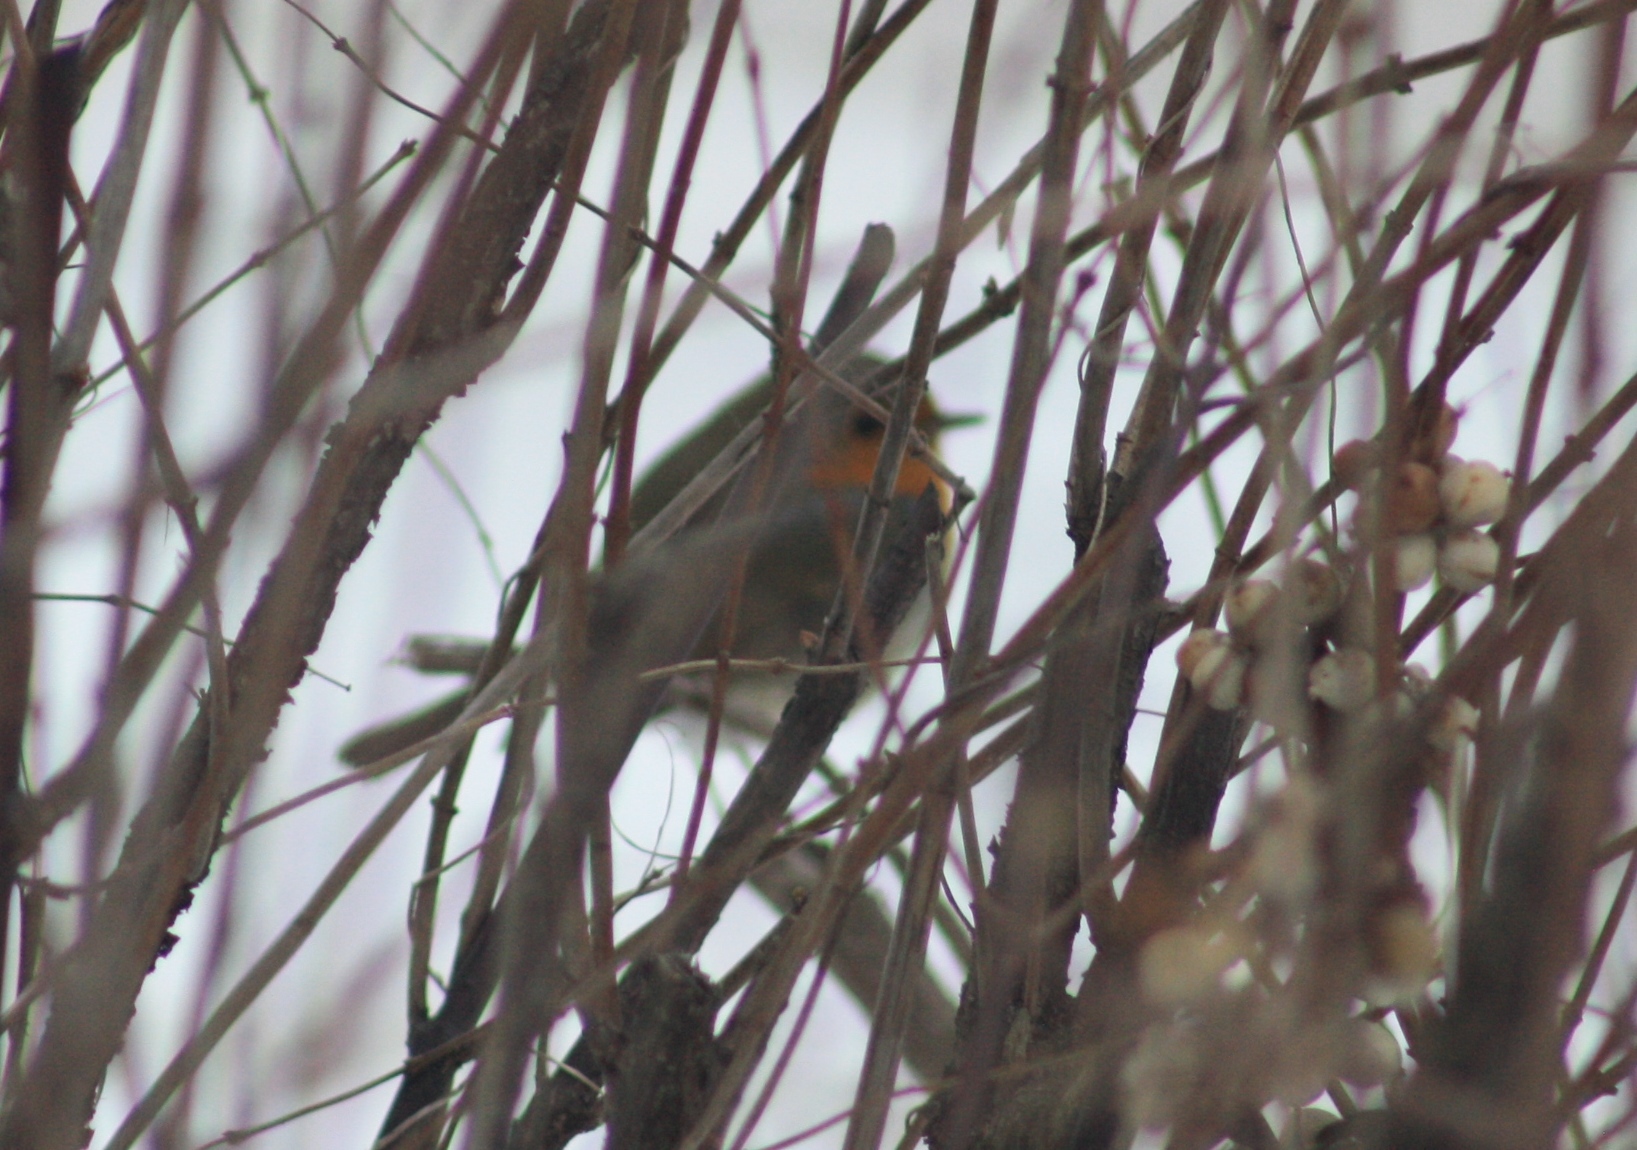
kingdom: Animalia
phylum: Chordata
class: Aves
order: Passeriformes
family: Muscicapidae
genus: Erithacus
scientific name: Erithacus rubecula
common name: European robin
